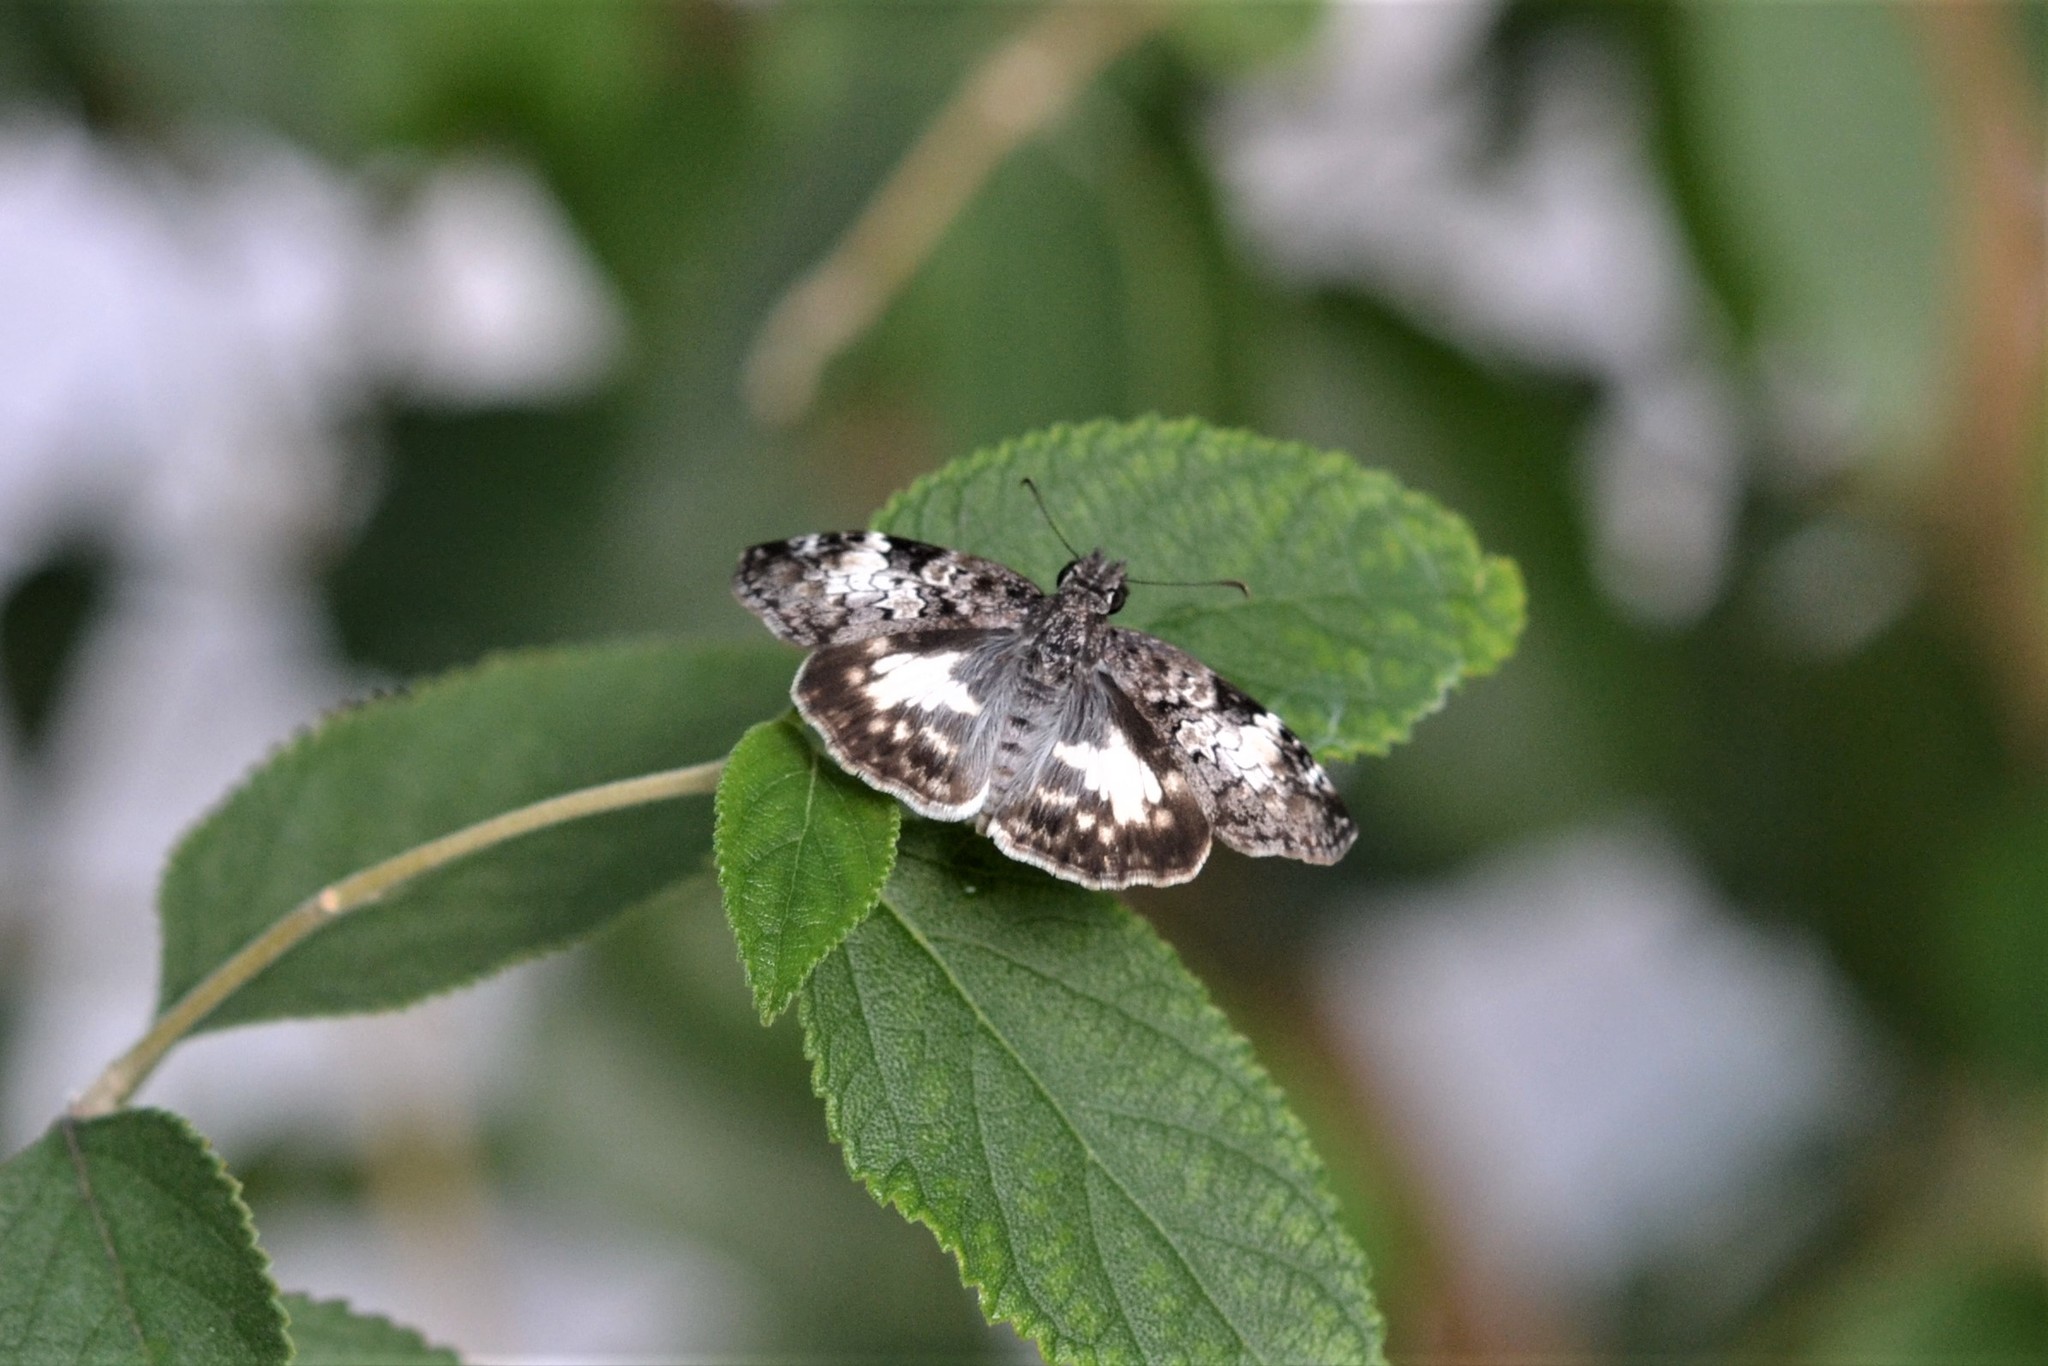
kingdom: Animalia
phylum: Arthropoda
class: Insecta
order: Lepidoptera
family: Hesperiidae
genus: Chiothion
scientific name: Chiothion georgina
